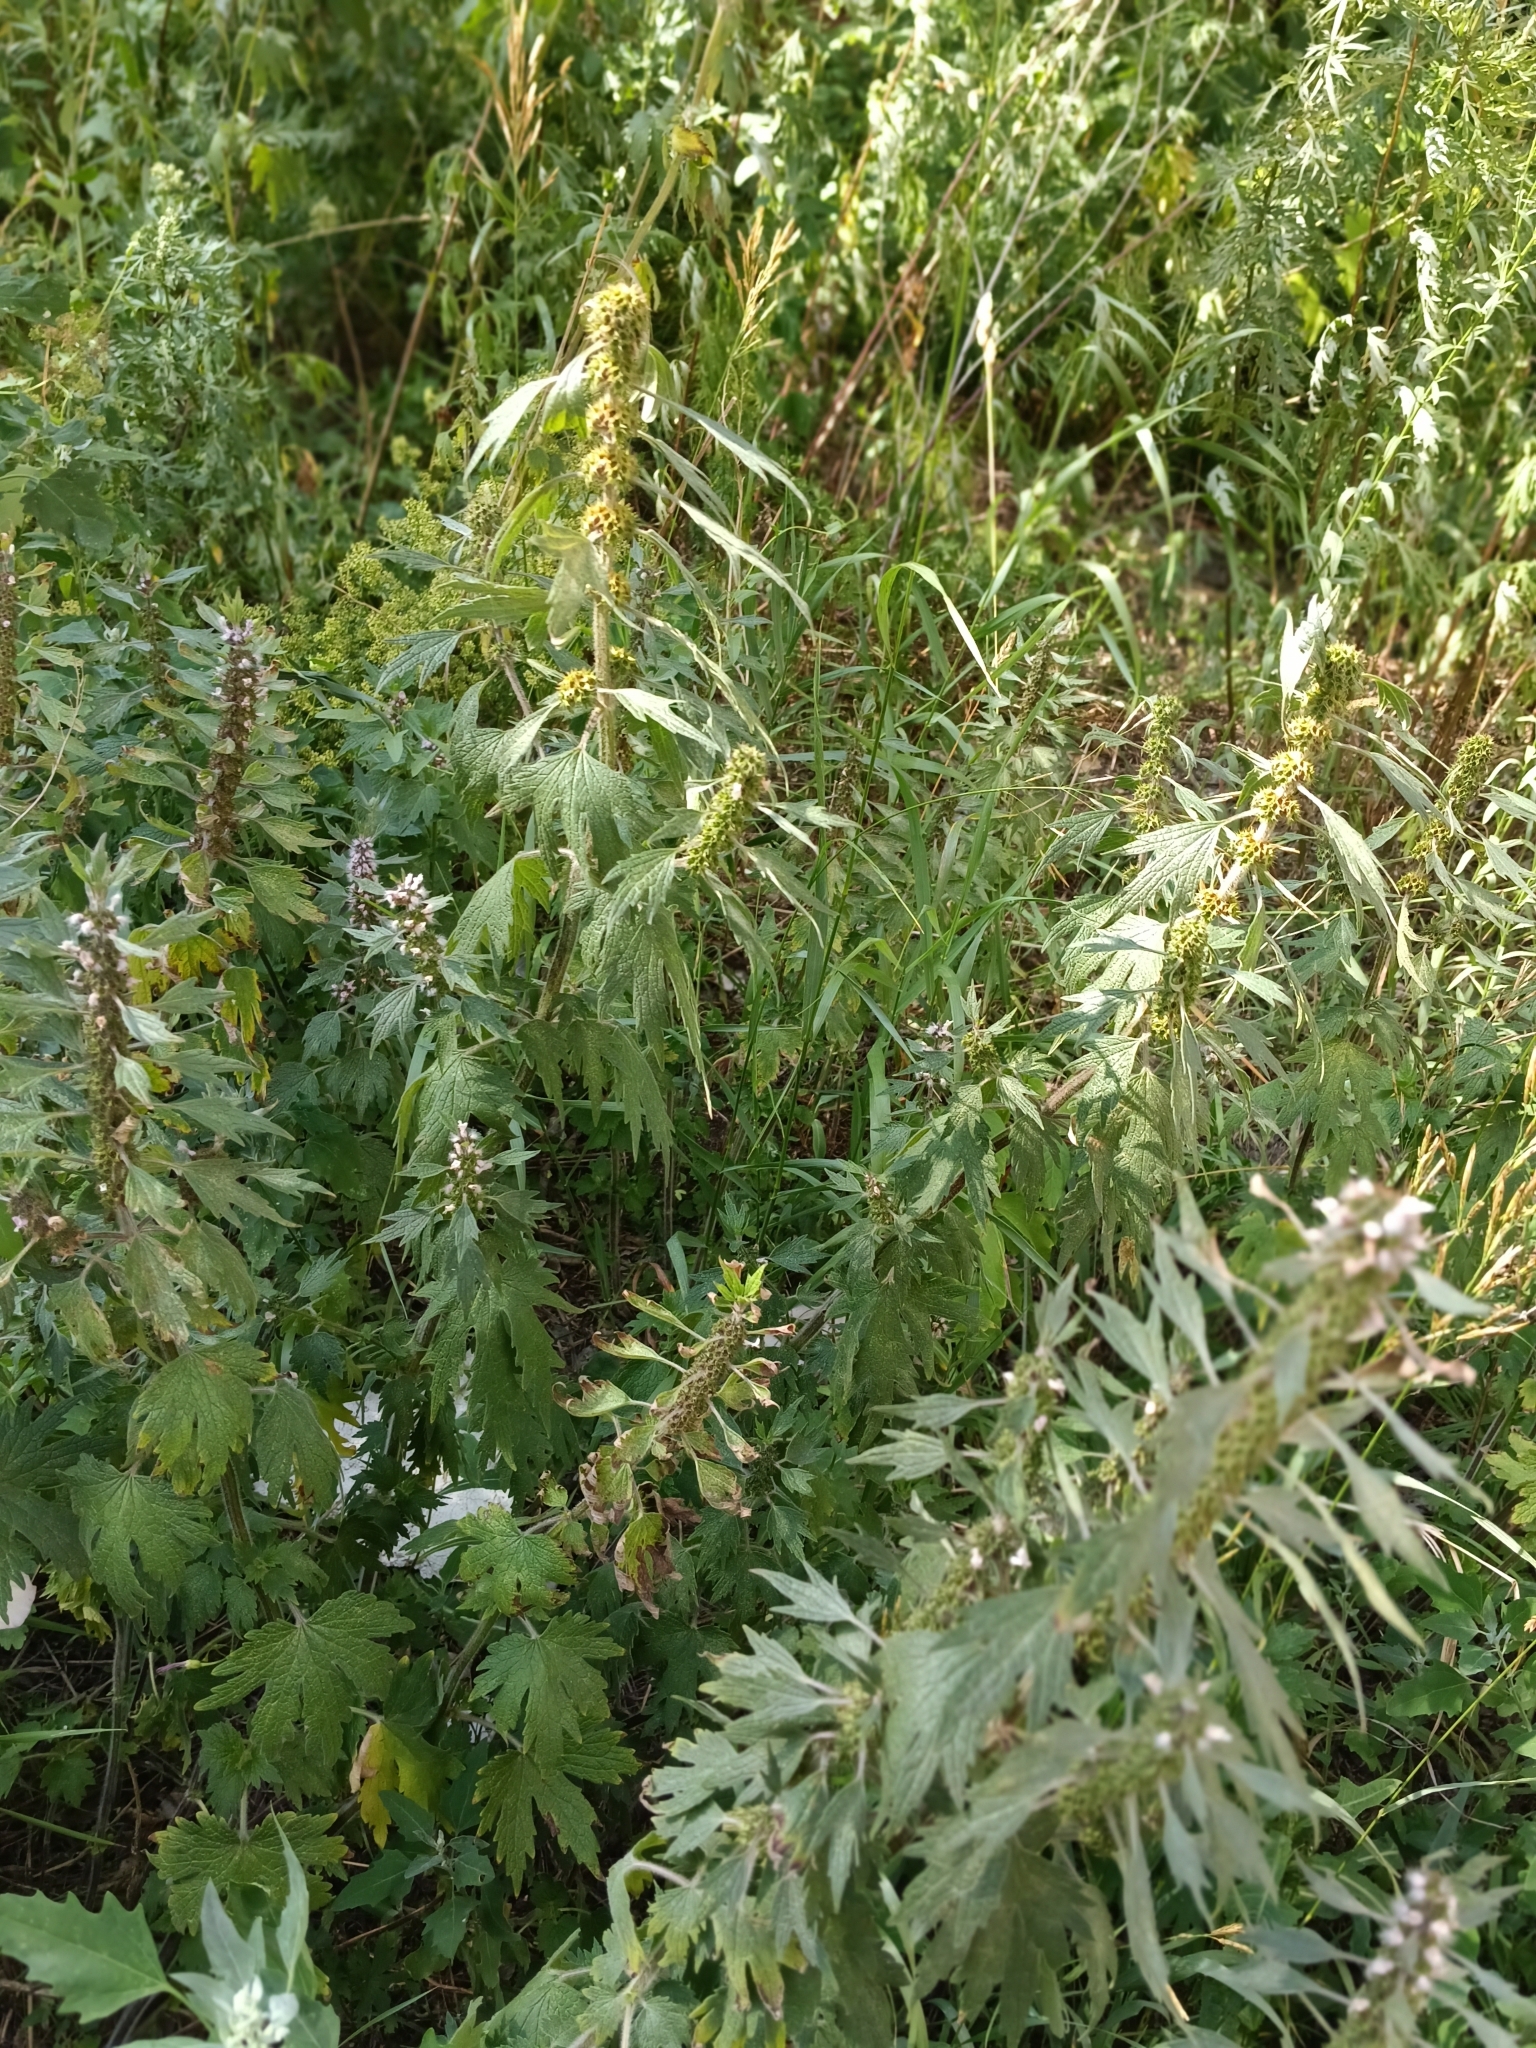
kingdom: Plantae
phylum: Tracheophyta
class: Magnoliopsida
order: Lamiales
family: Lamiaceae
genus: Leonurus
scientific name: Leonurus quinquelobatus
